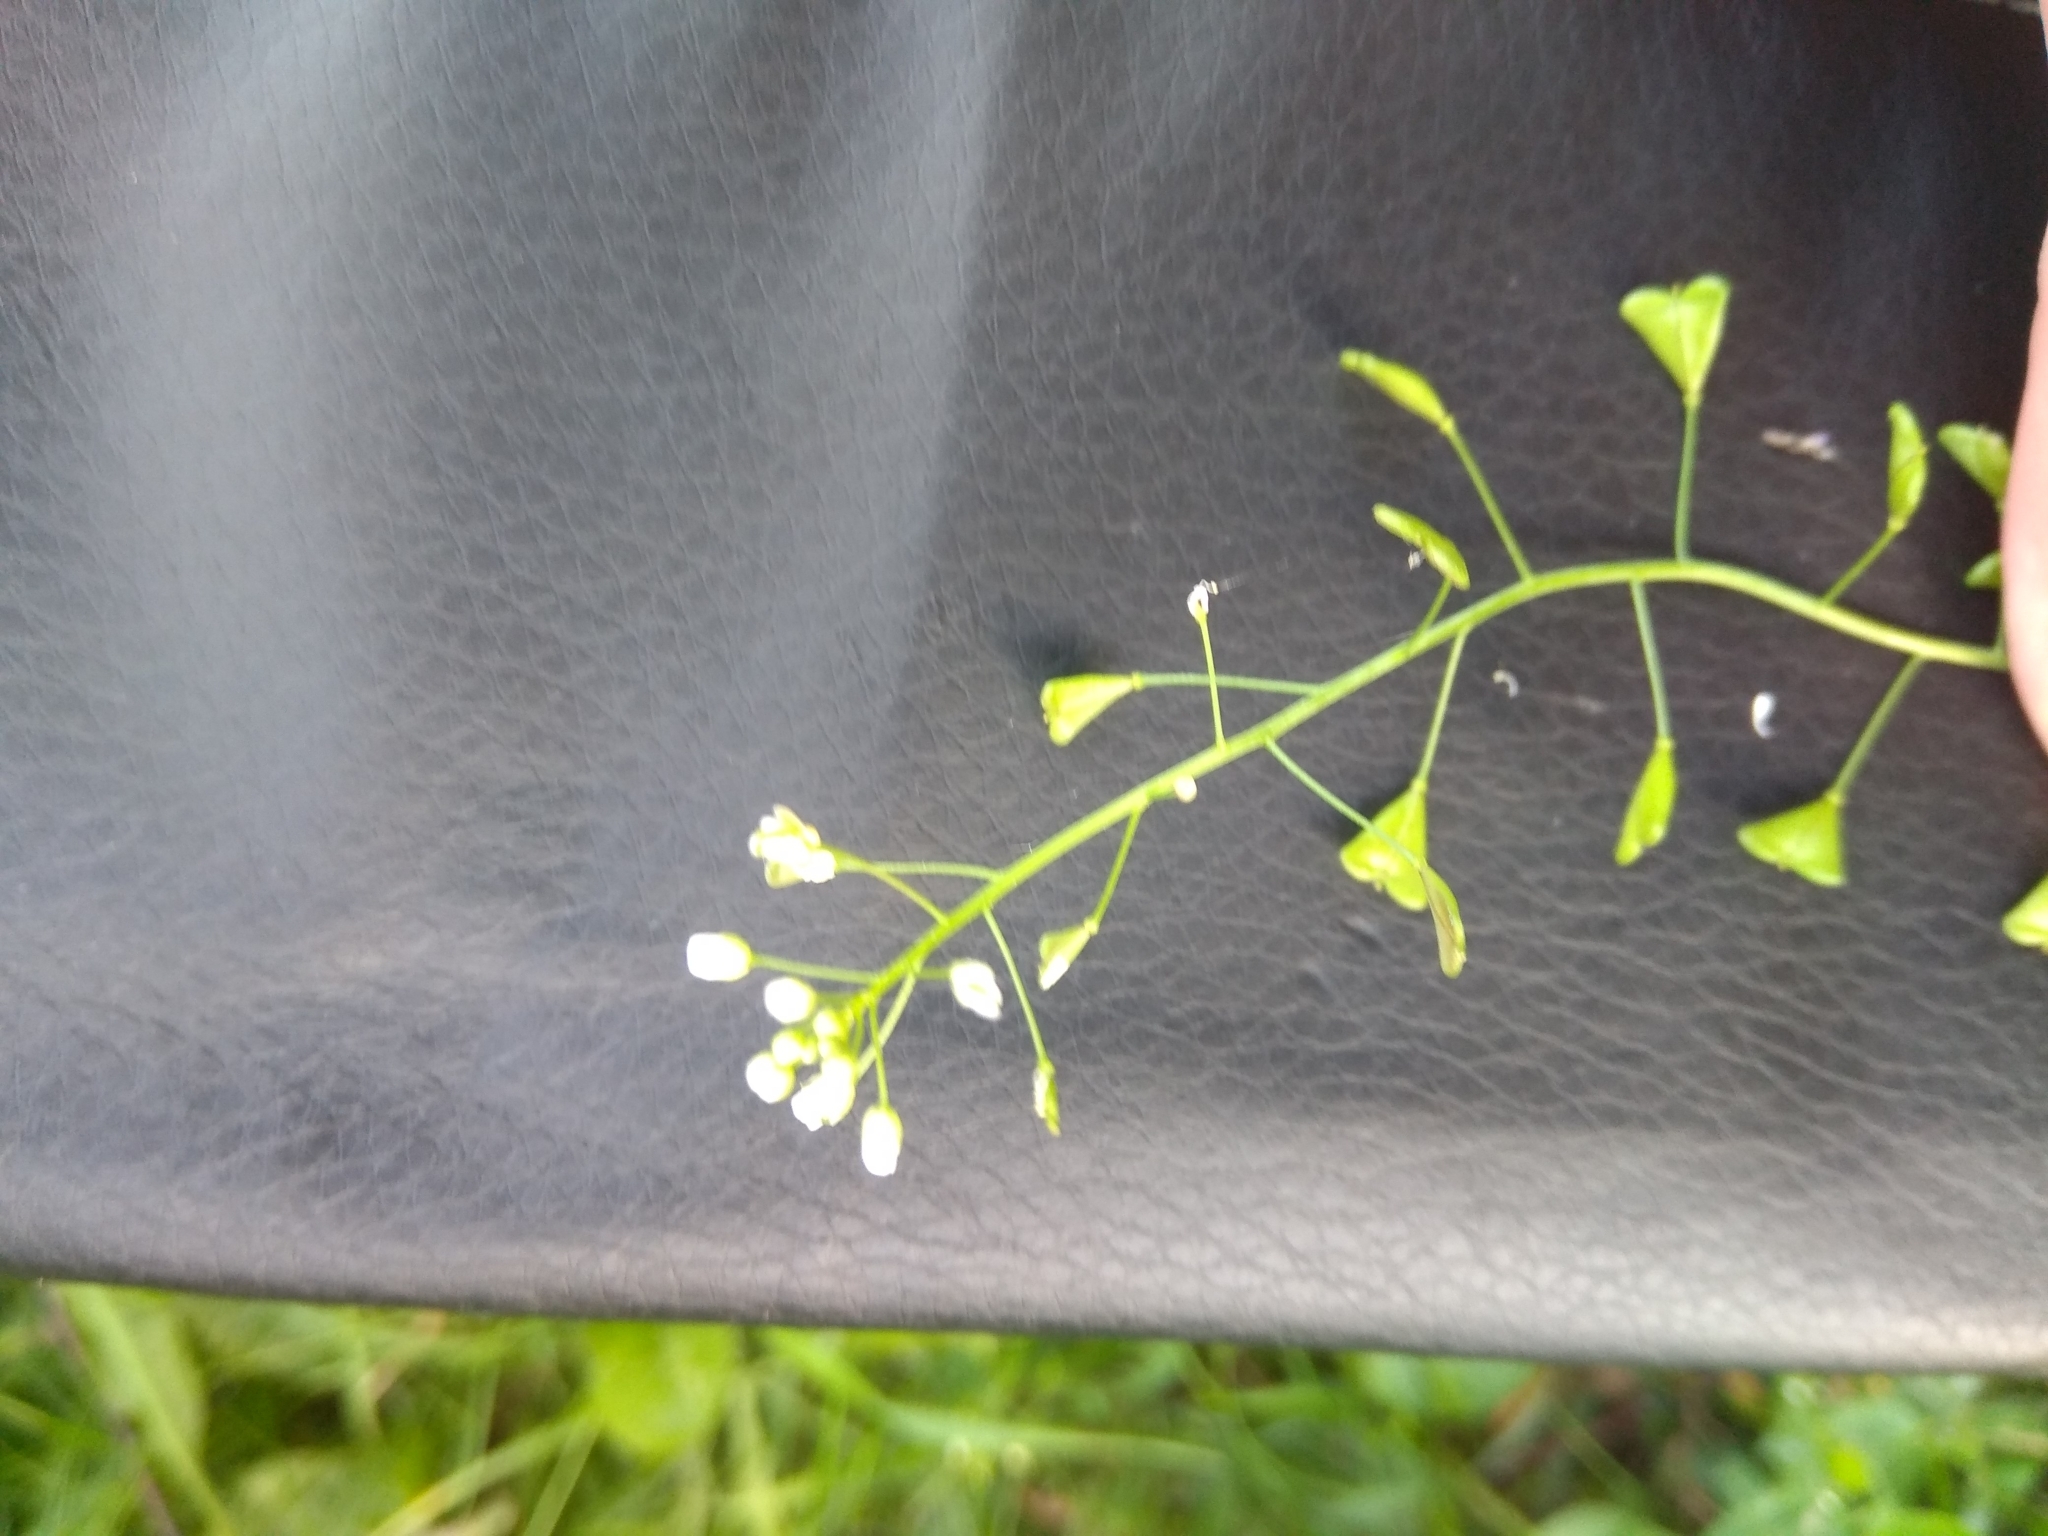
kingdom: Plantae
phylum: Tracheophyta
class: Magnoliopsida
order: Brassicales
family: Brassicaceae
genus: Capsella
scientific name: Capsella bursa-pastoris
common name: Shepherd's purse
